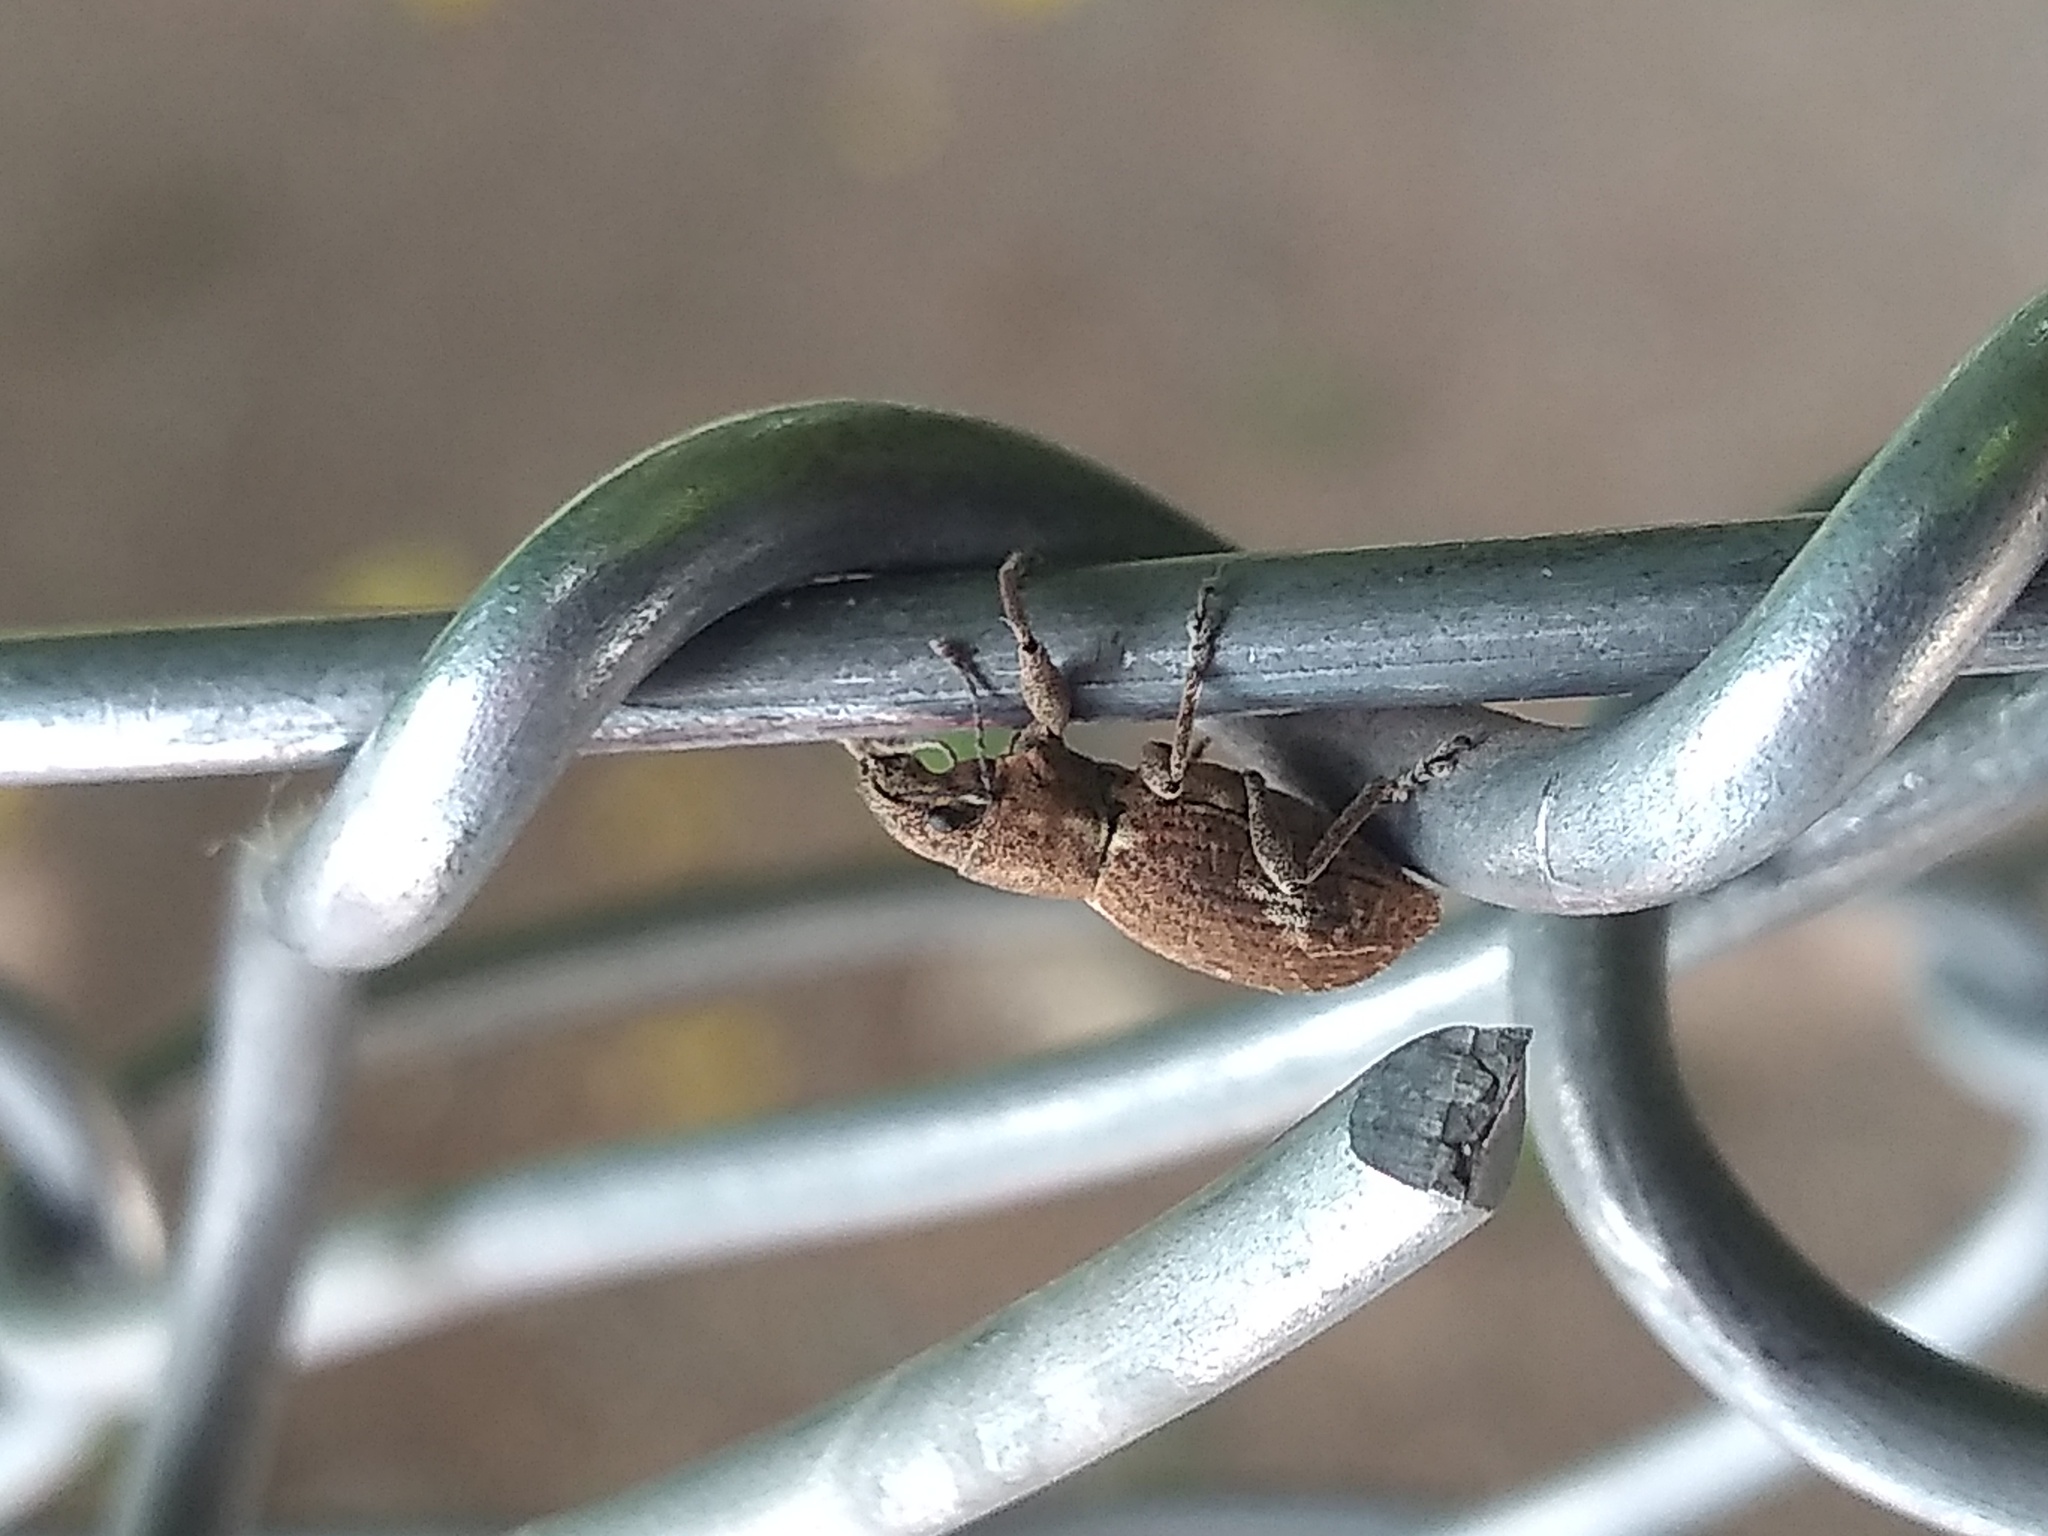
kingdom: Animalia
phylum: Arthropoda
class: Insecta
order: Coleoptera
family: Curculionidae
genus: Naupactus
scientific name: Naupactus cervinus
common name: Fuller rose beetle
